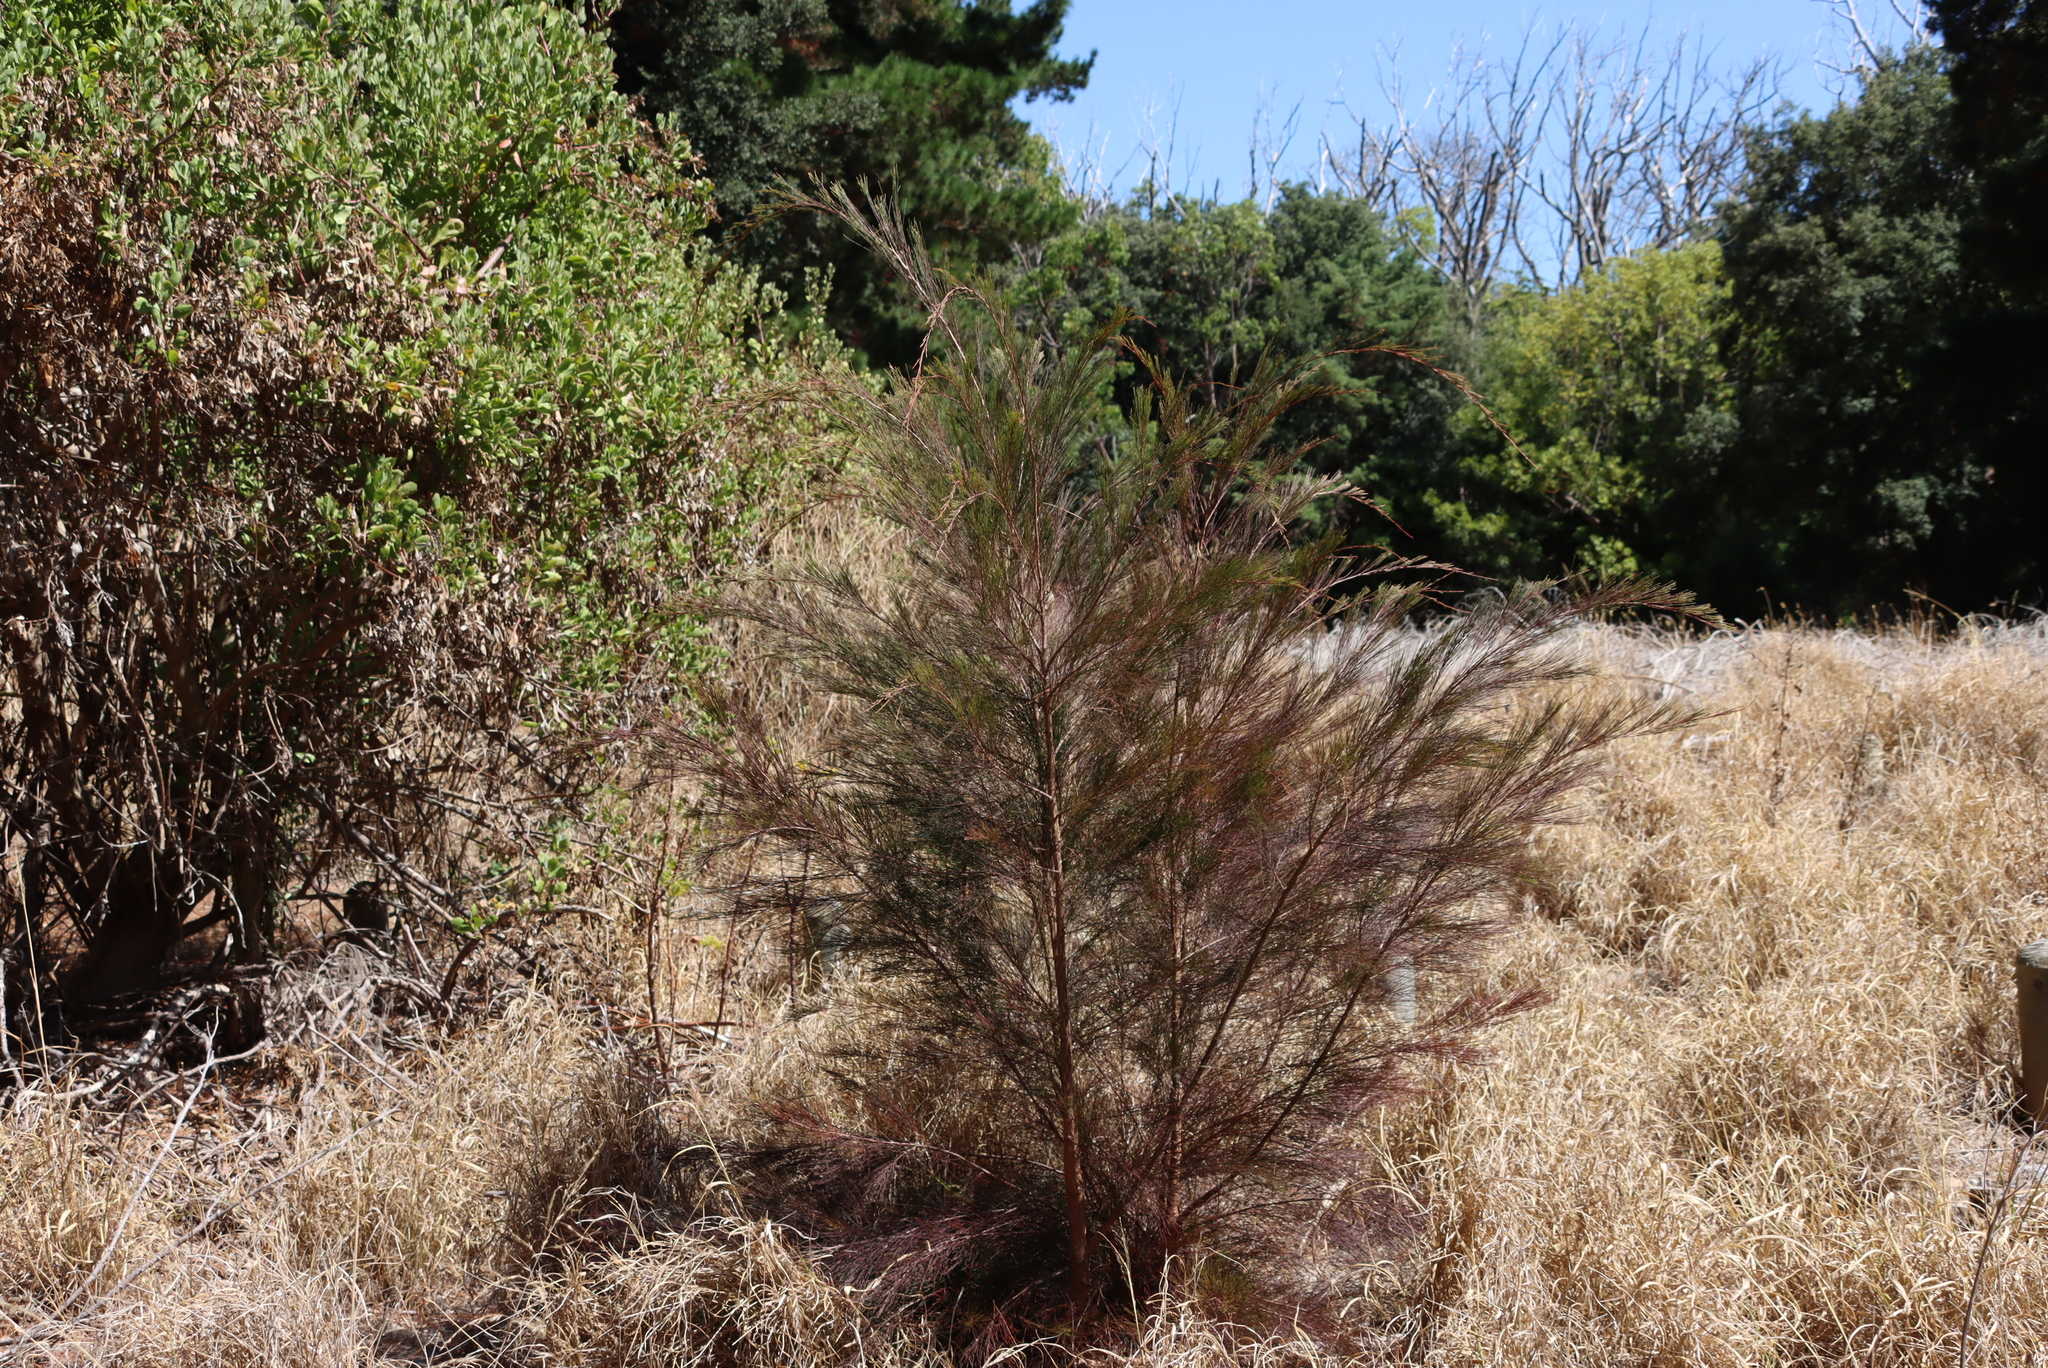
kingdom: Plantae
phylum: Tracheophyta
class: Magnoliopsida
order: Fagales
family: Casuarinaceae
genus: Casuarina
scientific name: Casuarina cunninghamiana
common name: River sheoak
